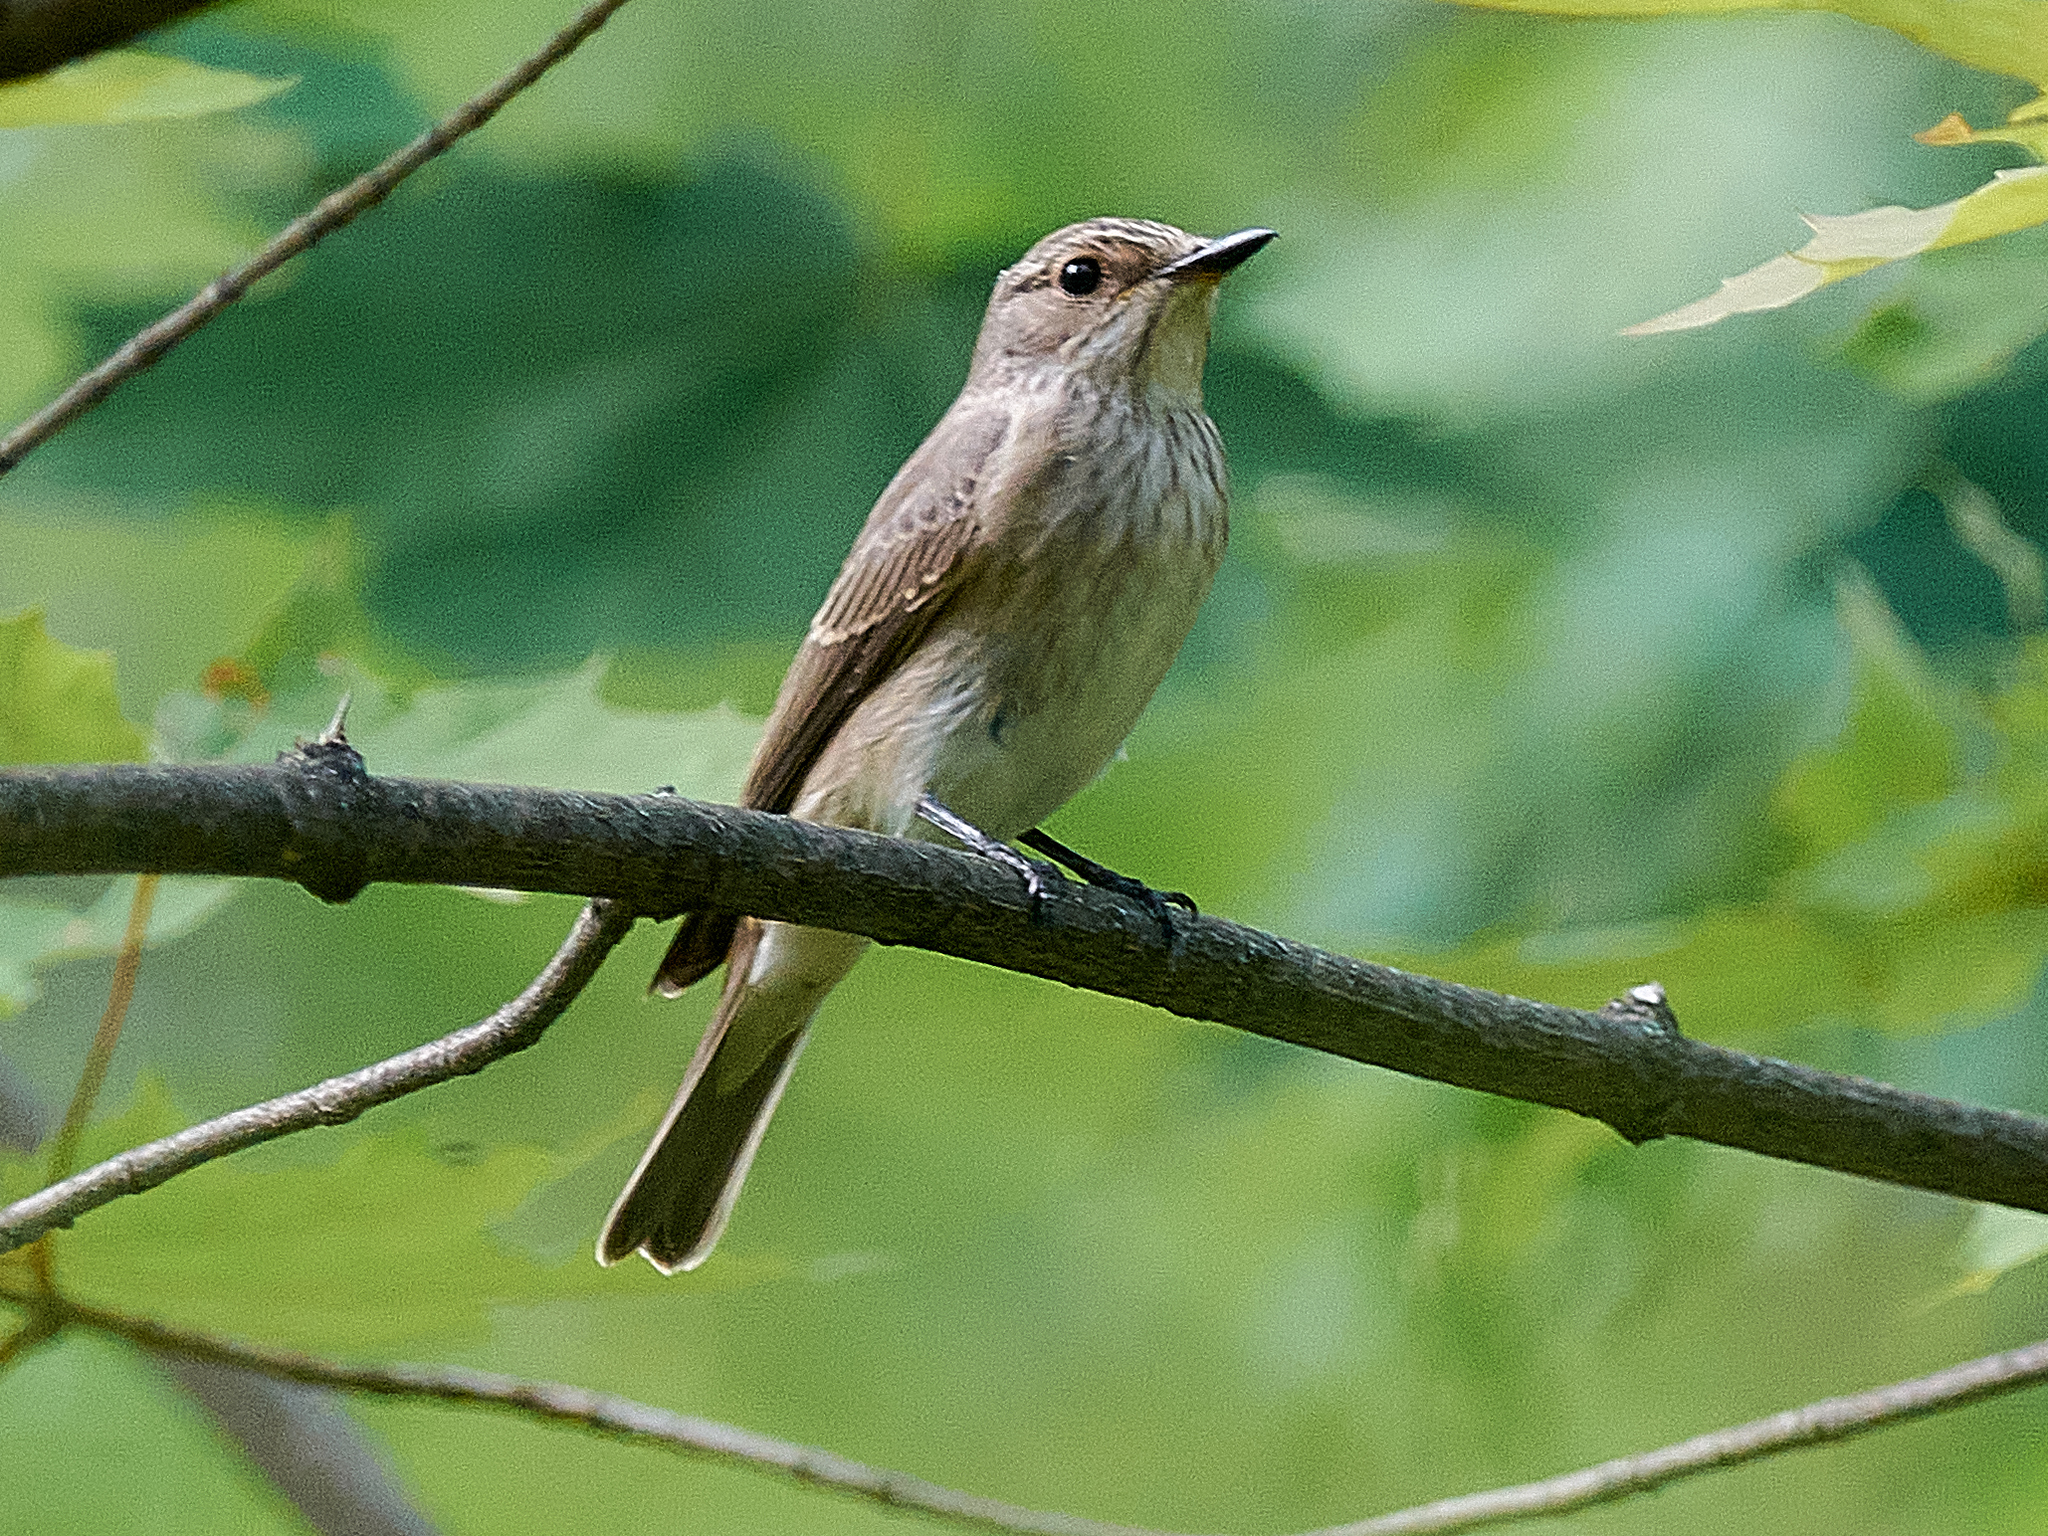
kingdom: Animalia
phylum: Chordata
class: Aves
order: Passeriformes
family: Muscicapidae
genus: Muscicapa
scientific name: Muscicapa striata
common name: Spotted flycatcher
